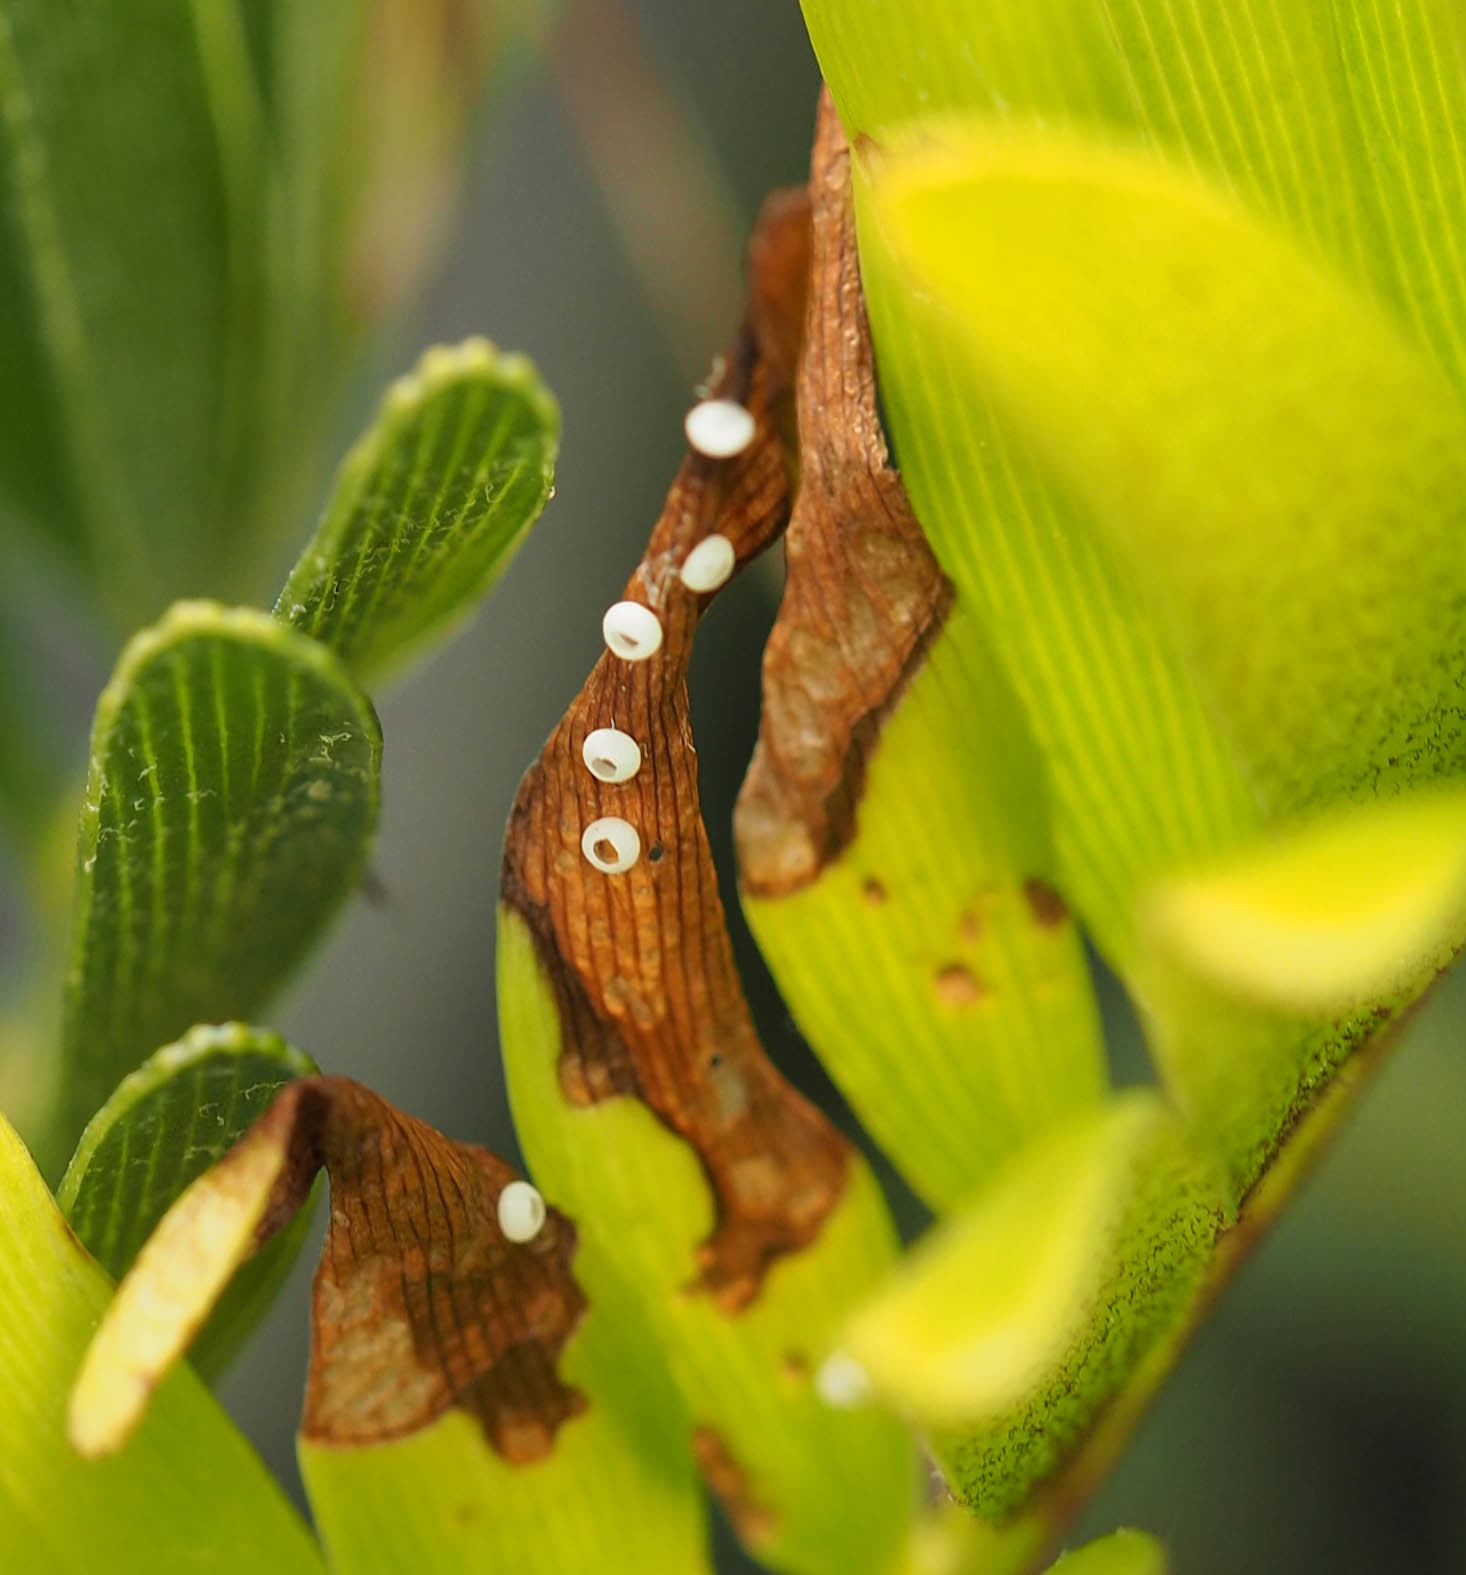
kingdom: Animalia
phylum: Arthropoda
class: Insecta
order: Lepidoptera
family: Lycaenidae
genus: Eumaeus
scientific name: Eumaeus atala
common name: Atala
